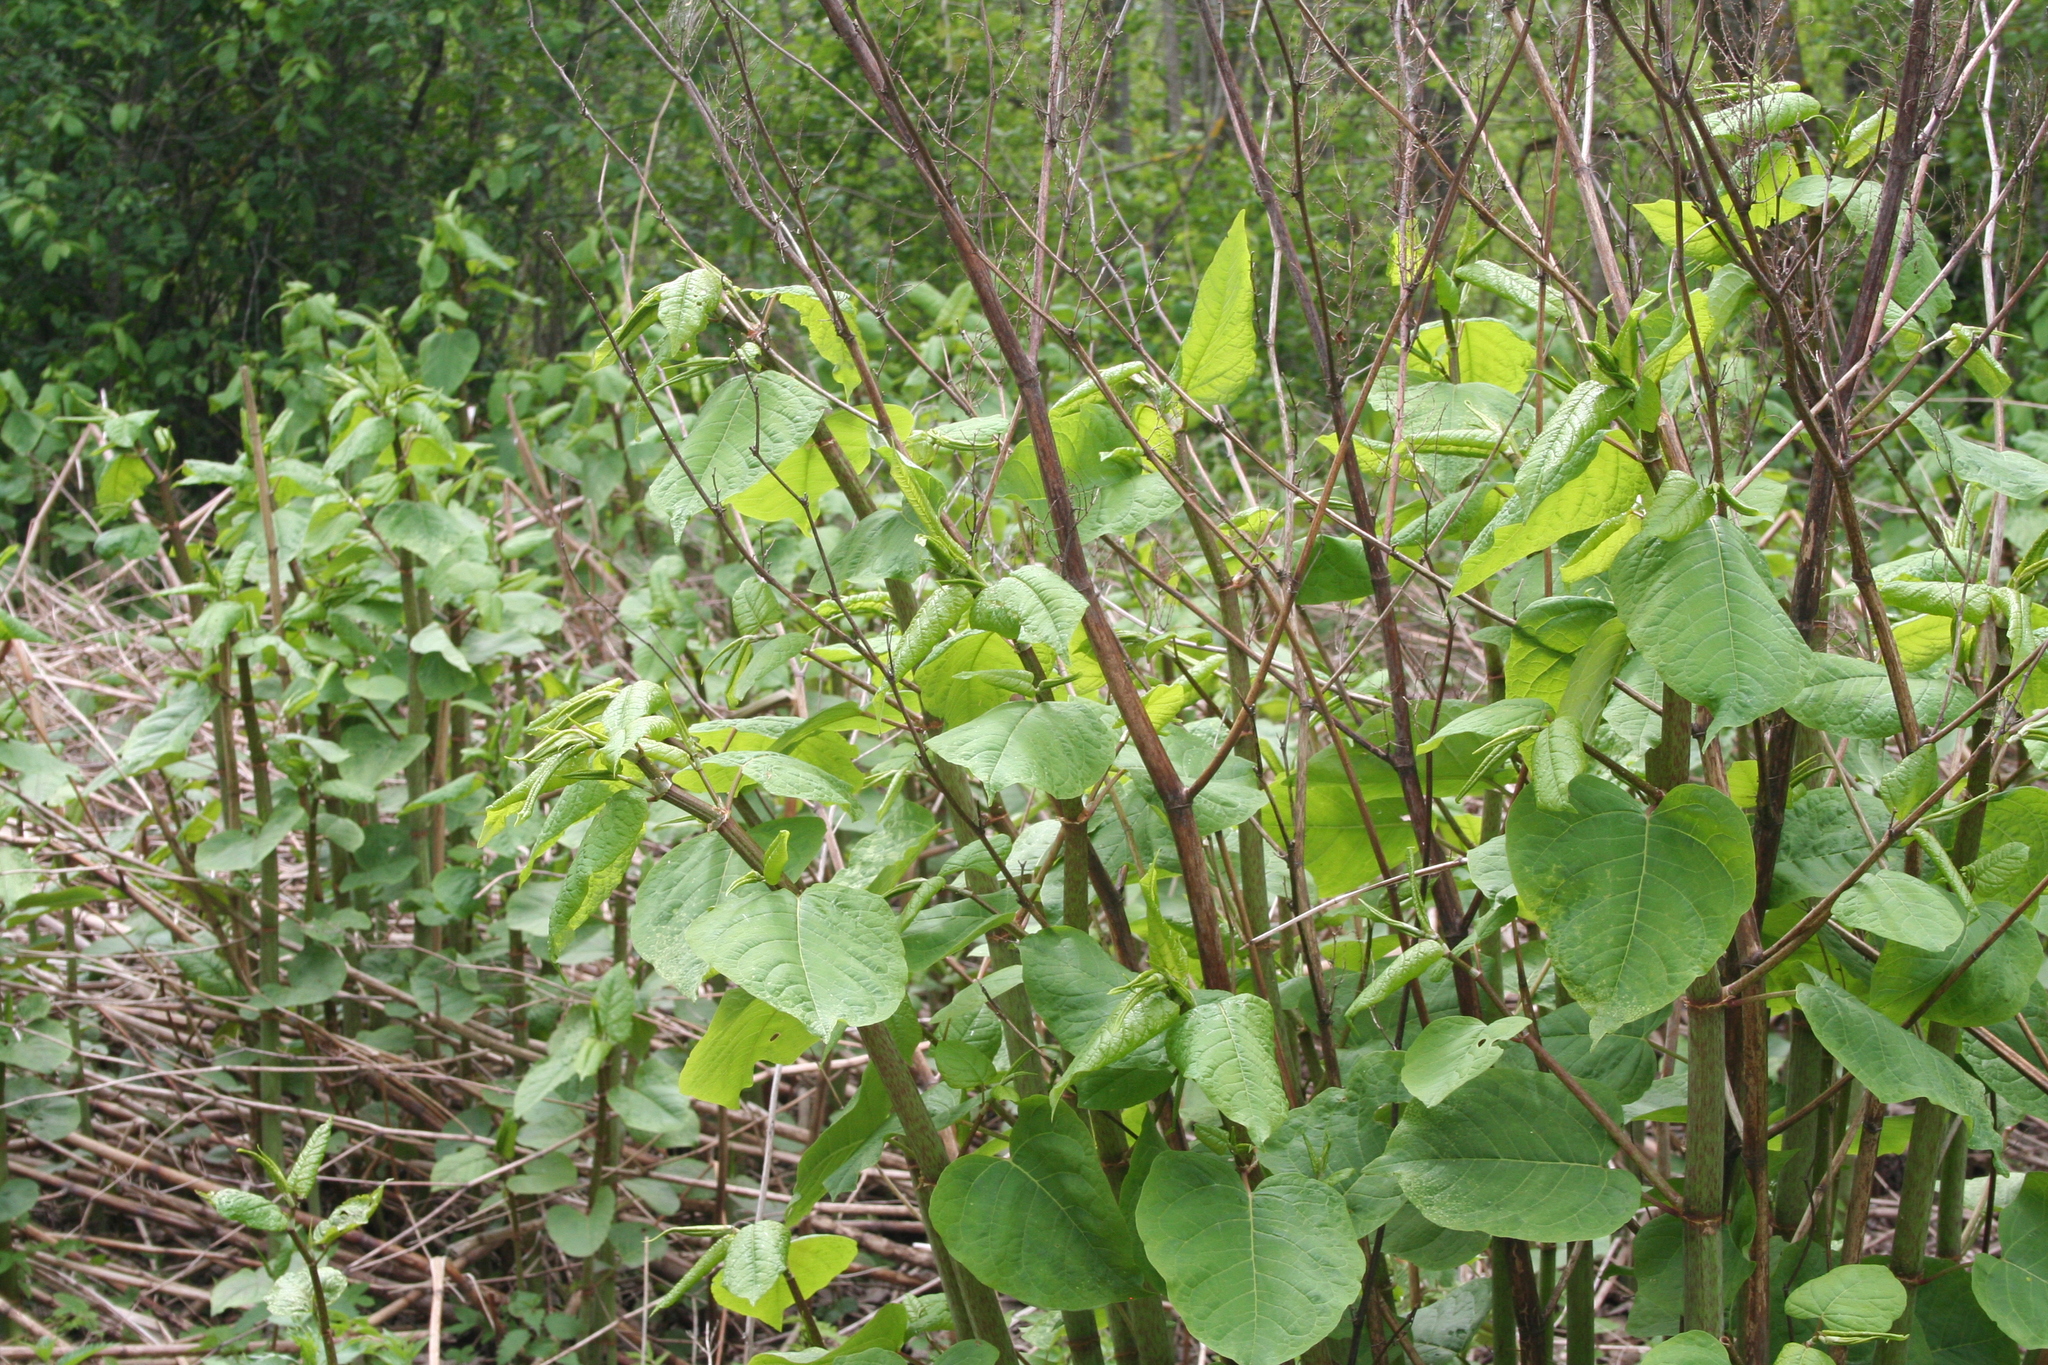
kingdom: Plantae
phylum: Tracheophyta
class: Magnoliopsida
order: Caryophyllales
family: Polygonaceae
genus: Reynoutria
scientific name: Reynoutria bohemica
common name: Bohemian knotweed
